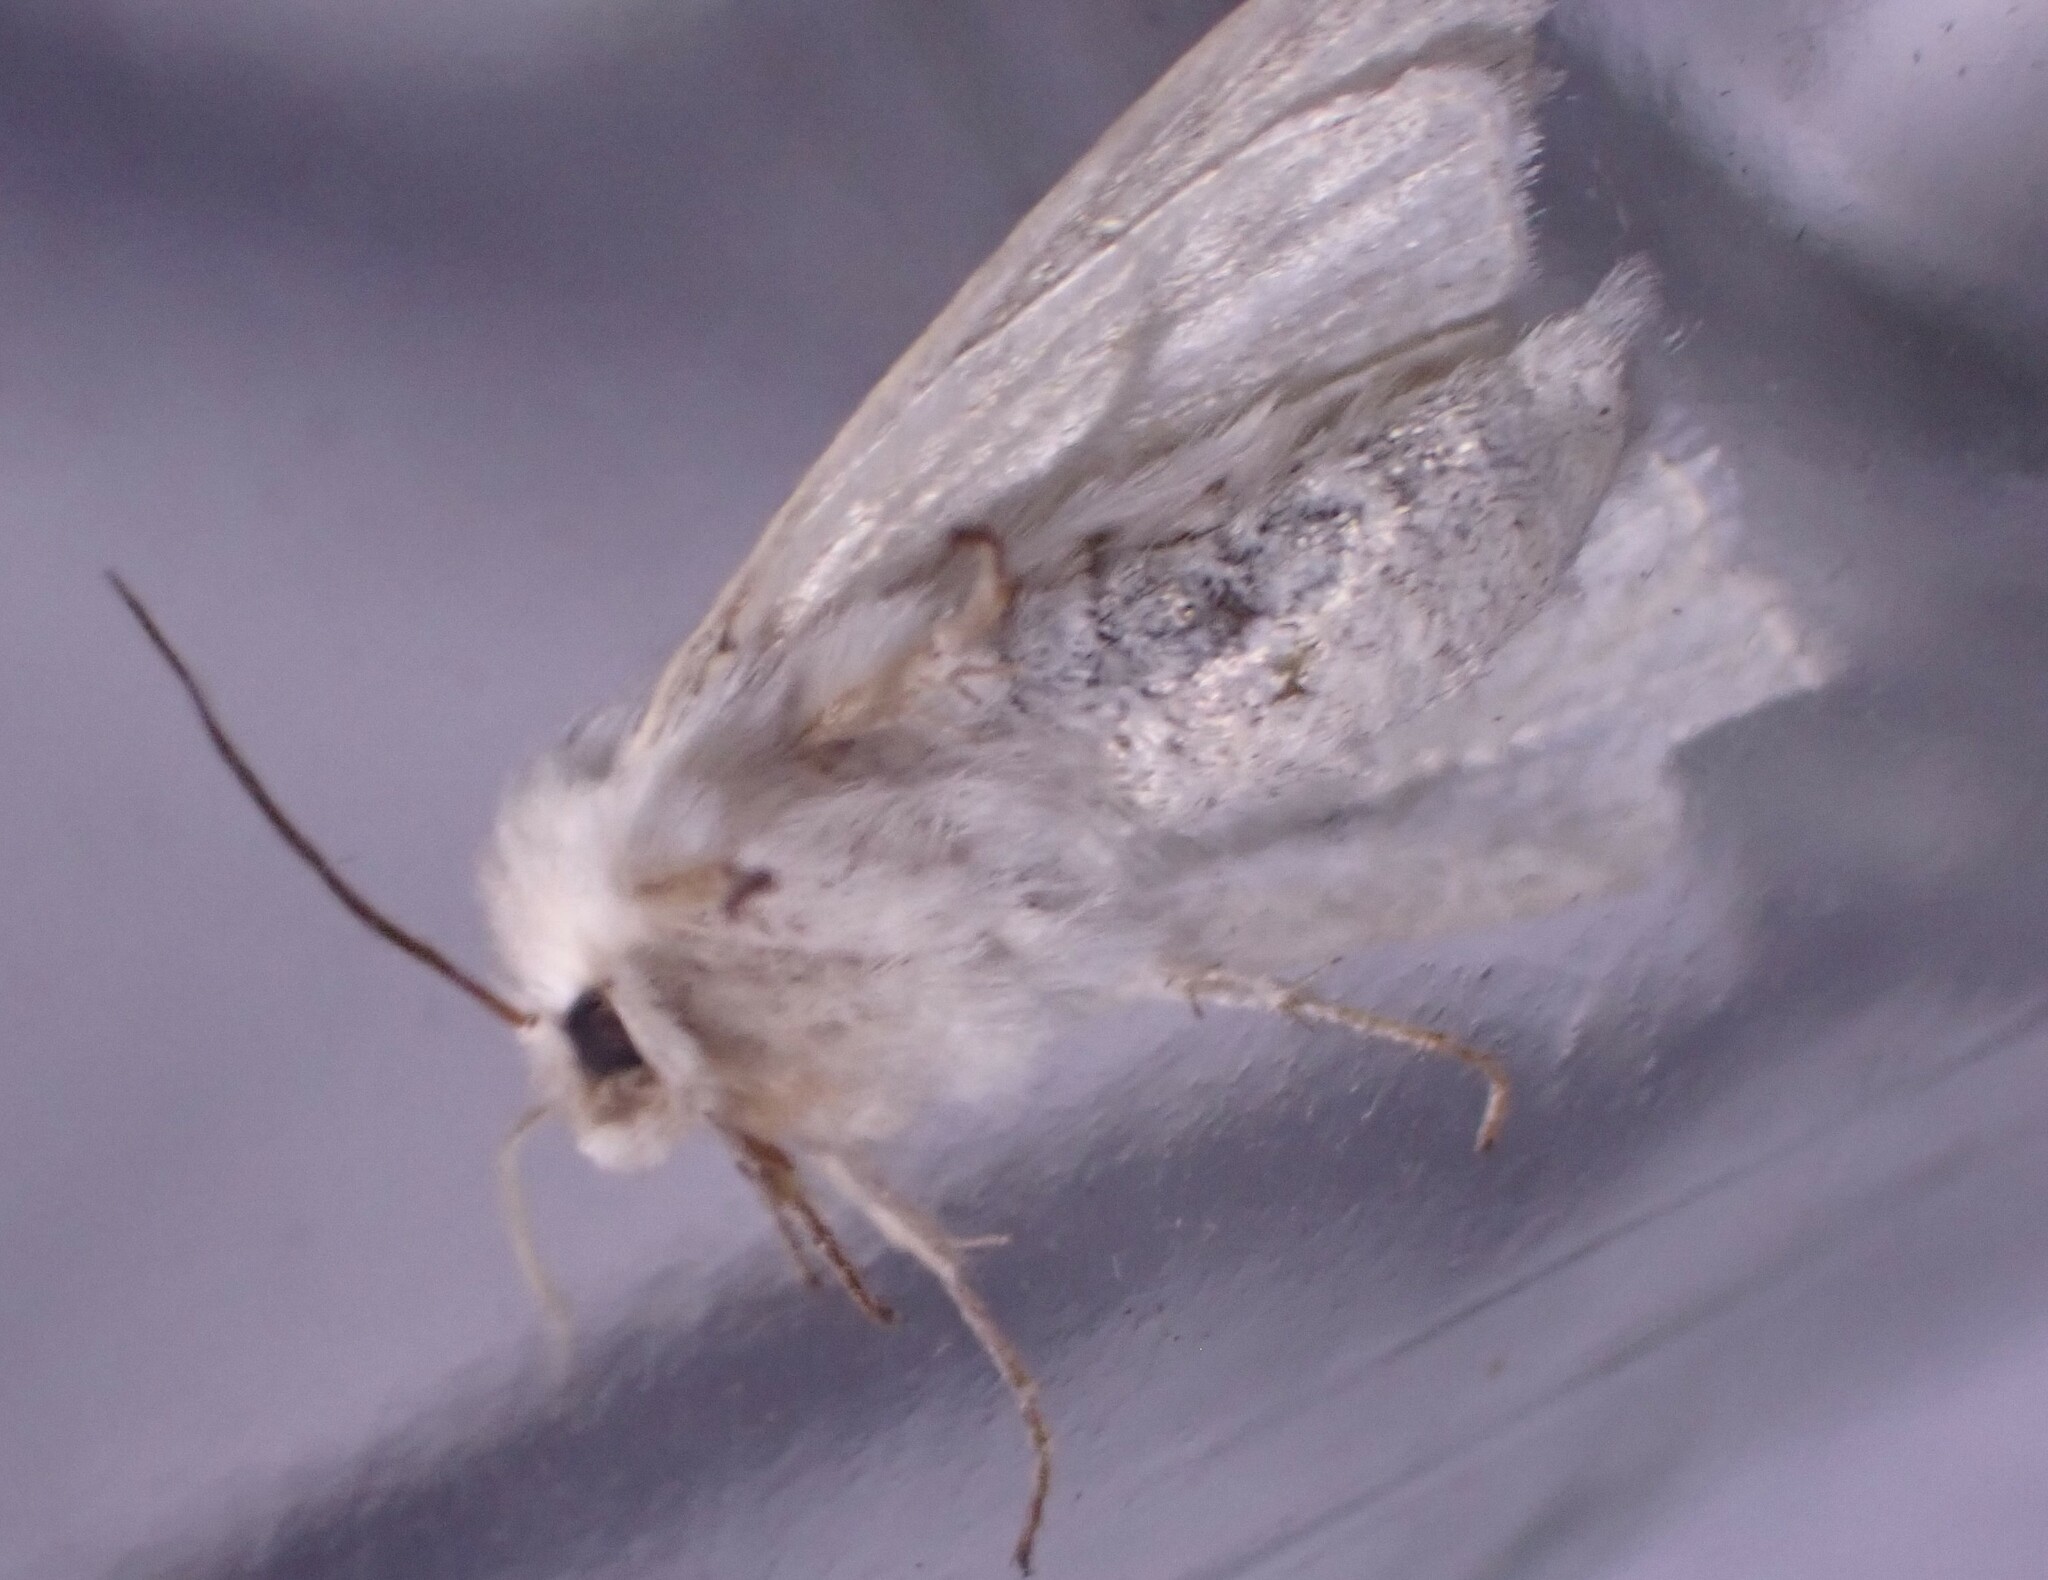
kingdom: Animalia
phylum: Arthropoda
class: Insecta
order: Lepidoptera
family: Noctuidae
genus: Simyra
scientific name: Simyra albovenosa
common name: Reed dagger
